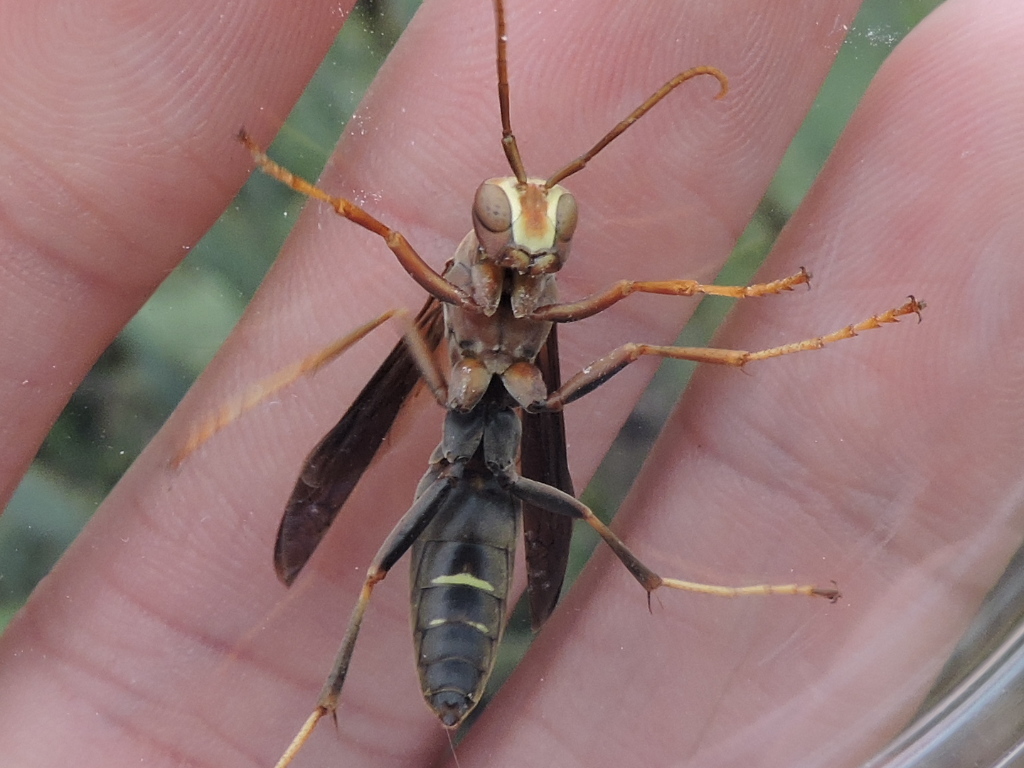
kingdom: Animalia
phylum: Arthropoda
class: Insecta
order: Hymenoptera
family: Eumenidae
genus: Polistes
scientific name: Polistes metricus
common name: Metric paper wasp
